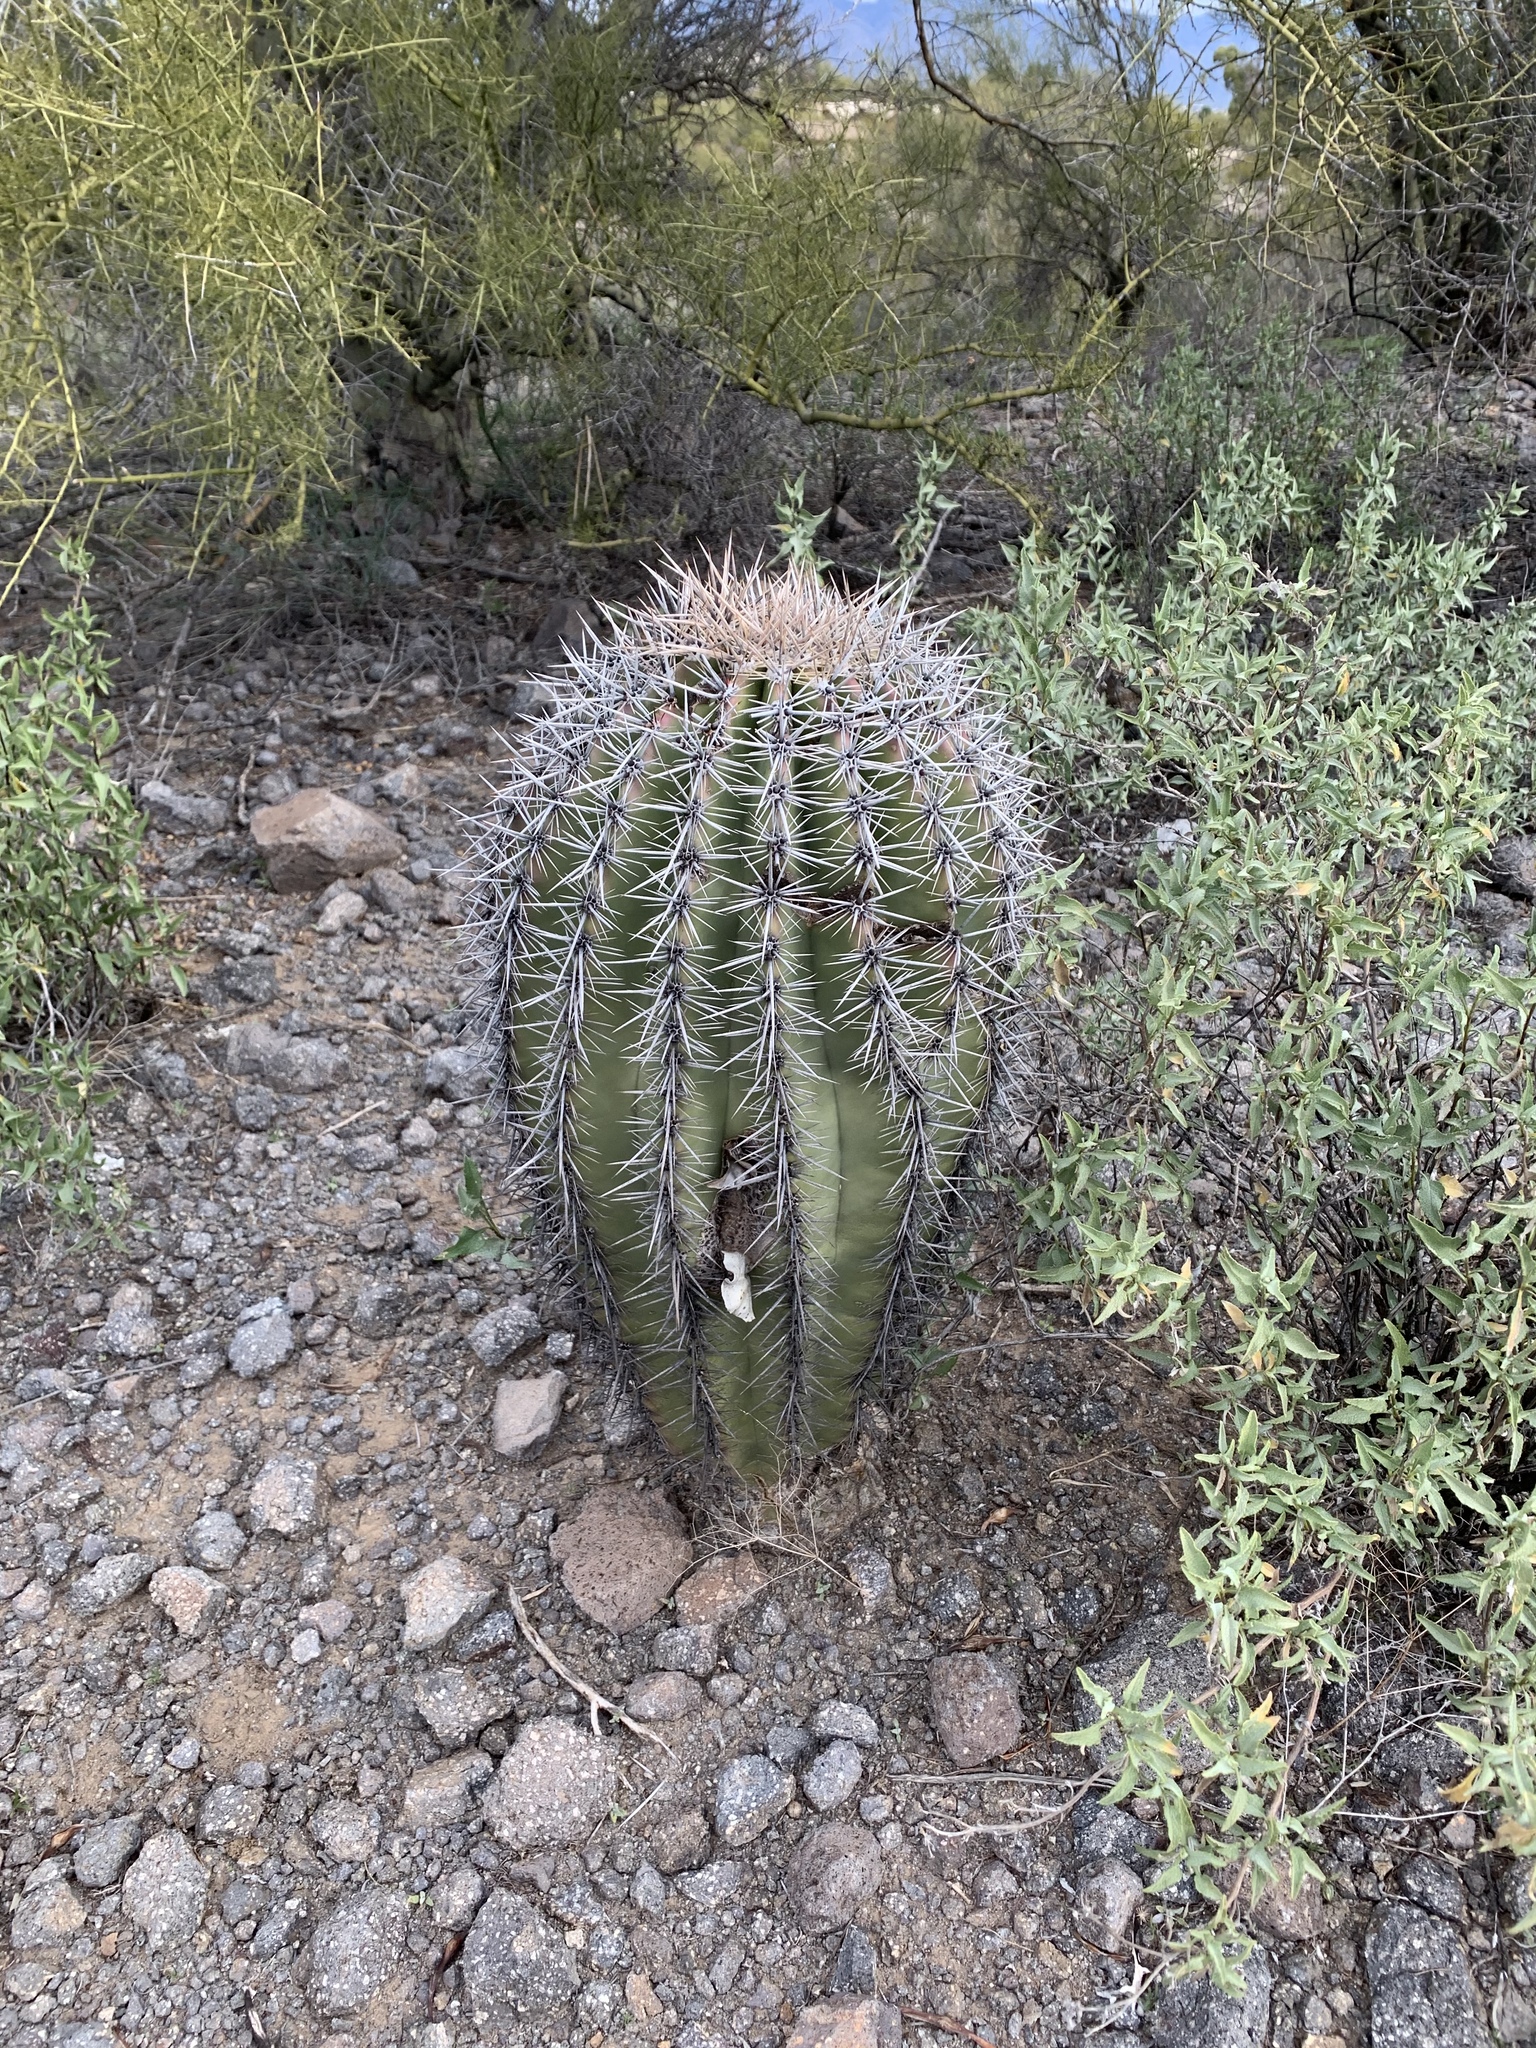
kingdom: Plantae
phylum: Tracheophyta
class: Magnoliopsida
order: Caryophyllales
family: Cactaceae
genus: Carnegiea
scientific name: Carnegiea gigantea
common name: Saguaro
